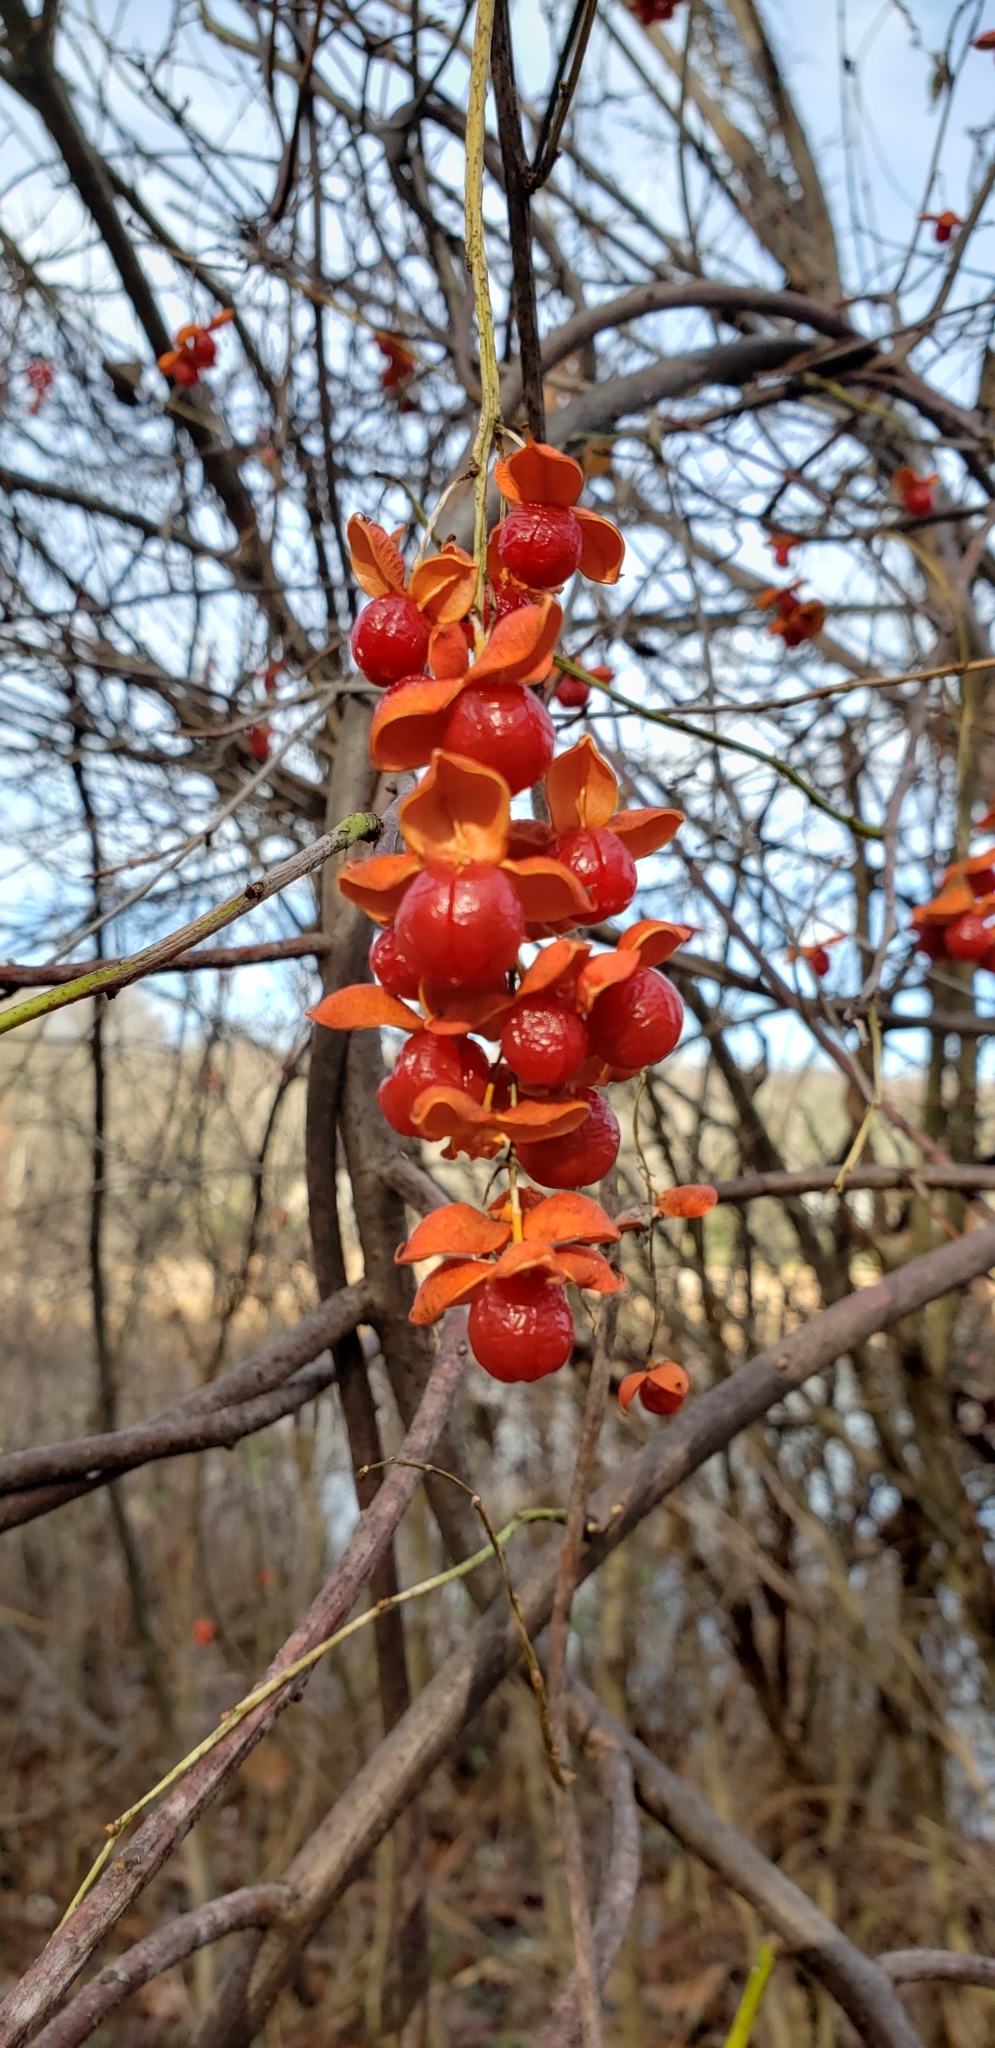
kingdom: Plantae
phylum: Tracheophyta
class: Magnoliopsida
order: Celastrales
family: Celastraceae
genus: Celastrus
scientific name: Celastrus scandens
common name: American bittersweet
